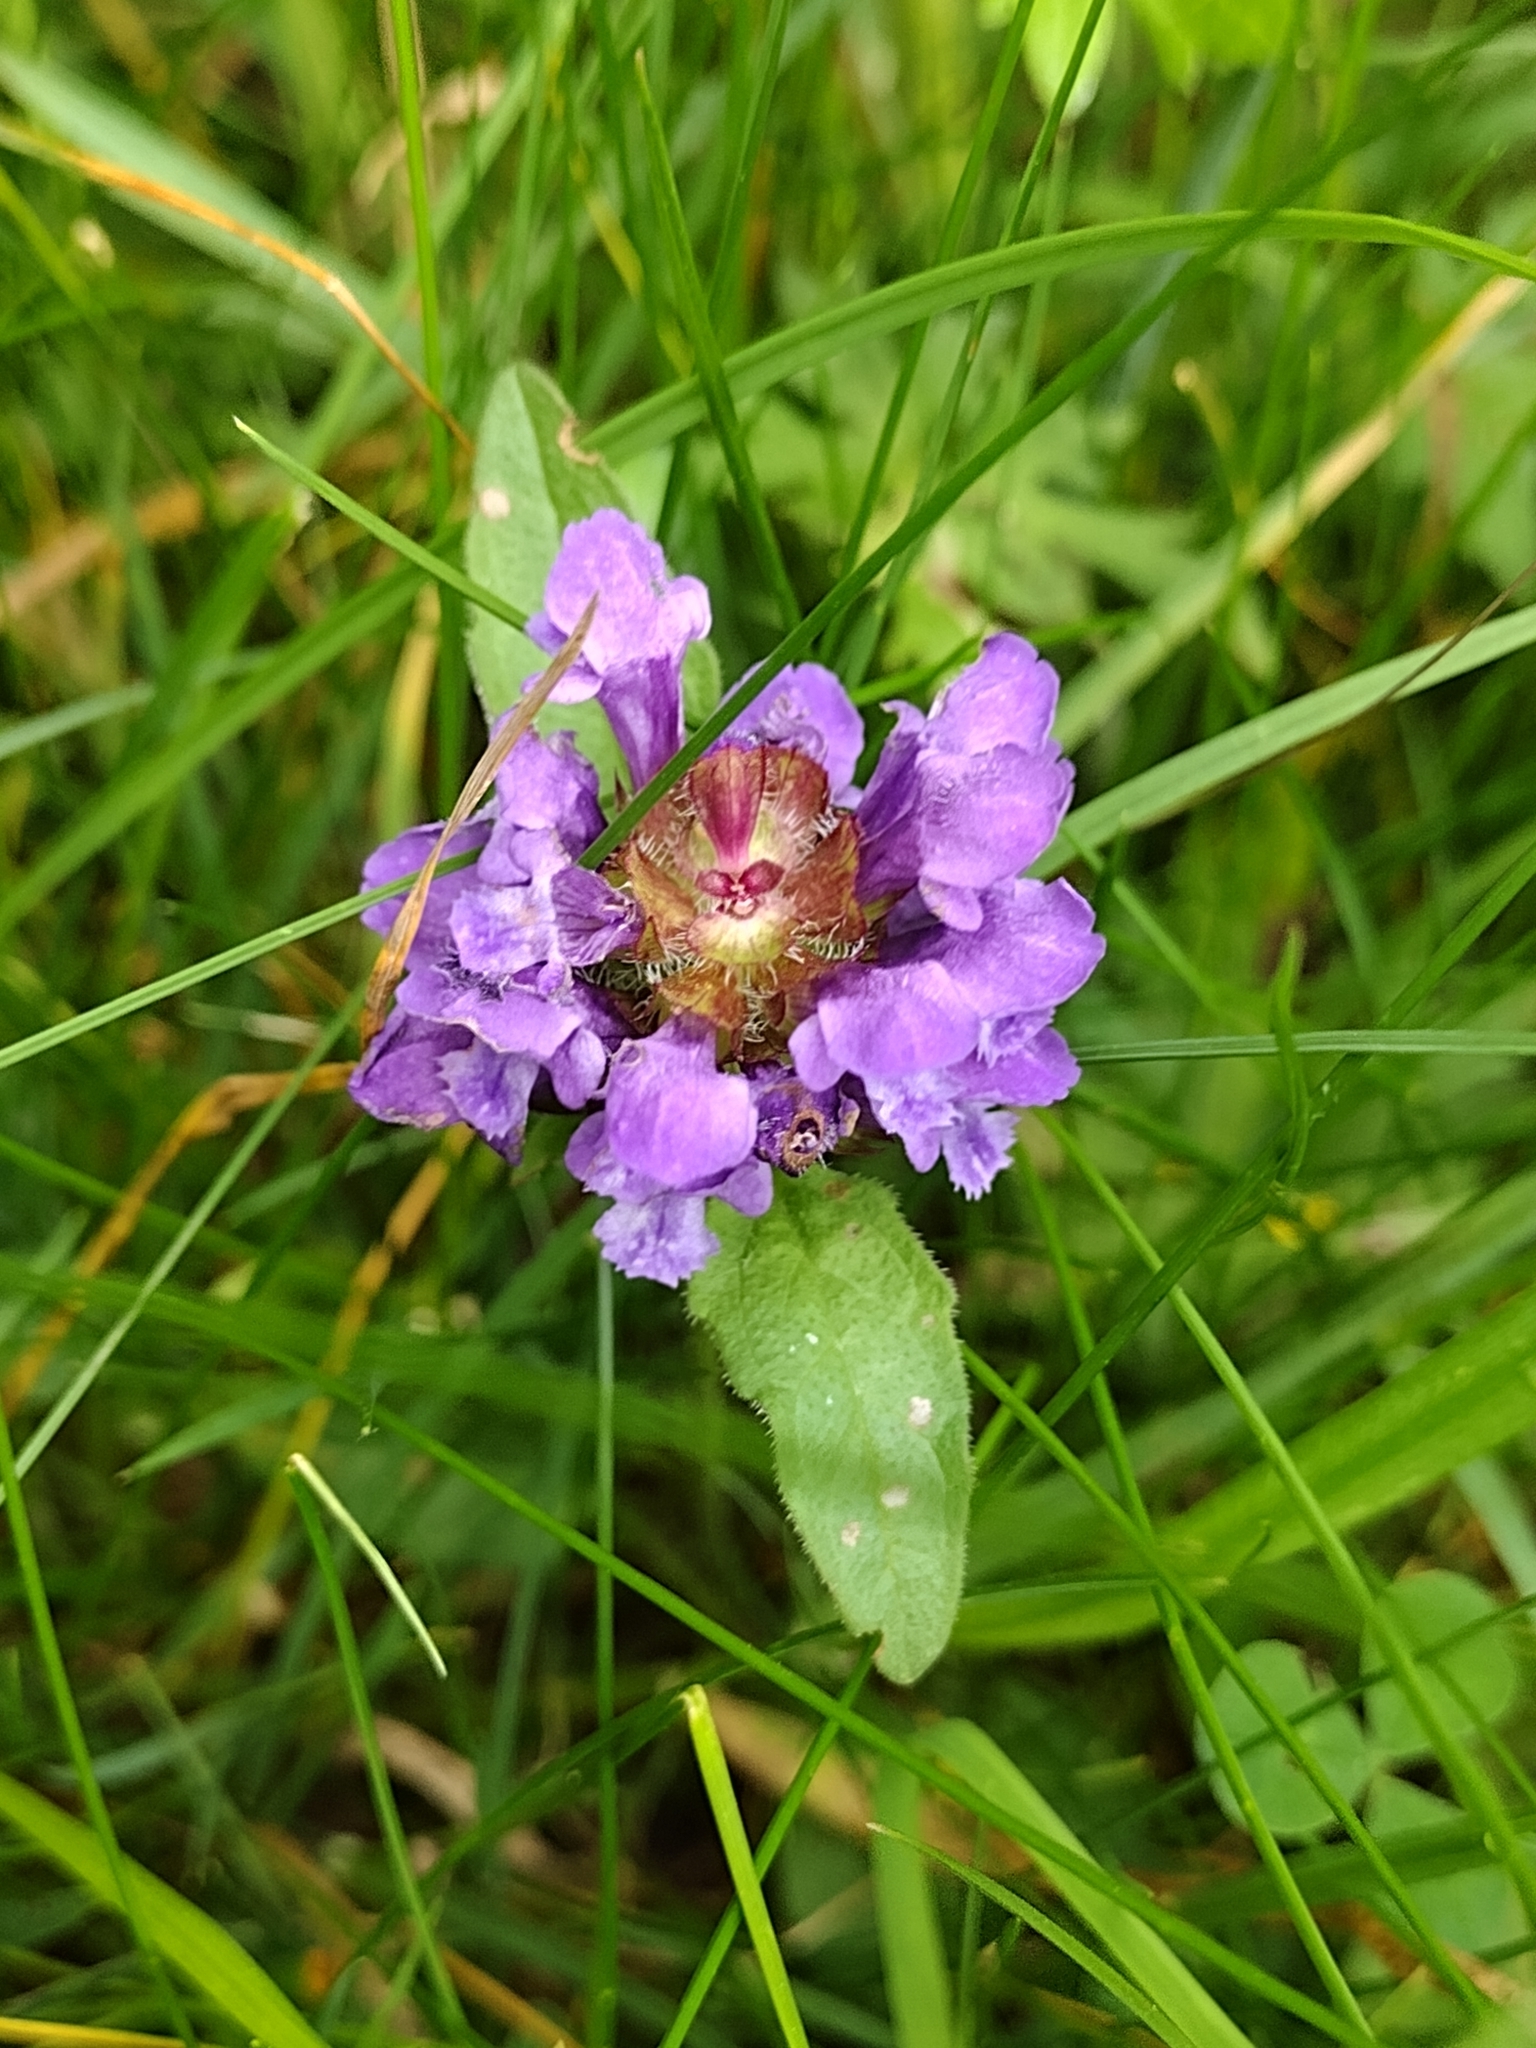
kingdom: Plantae
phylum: Tracheophyta
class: Magnoliopsida
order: Lamiales
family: Lamiaceae
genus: Prunella
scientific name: Prunella vulgaris
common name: Heal-all
